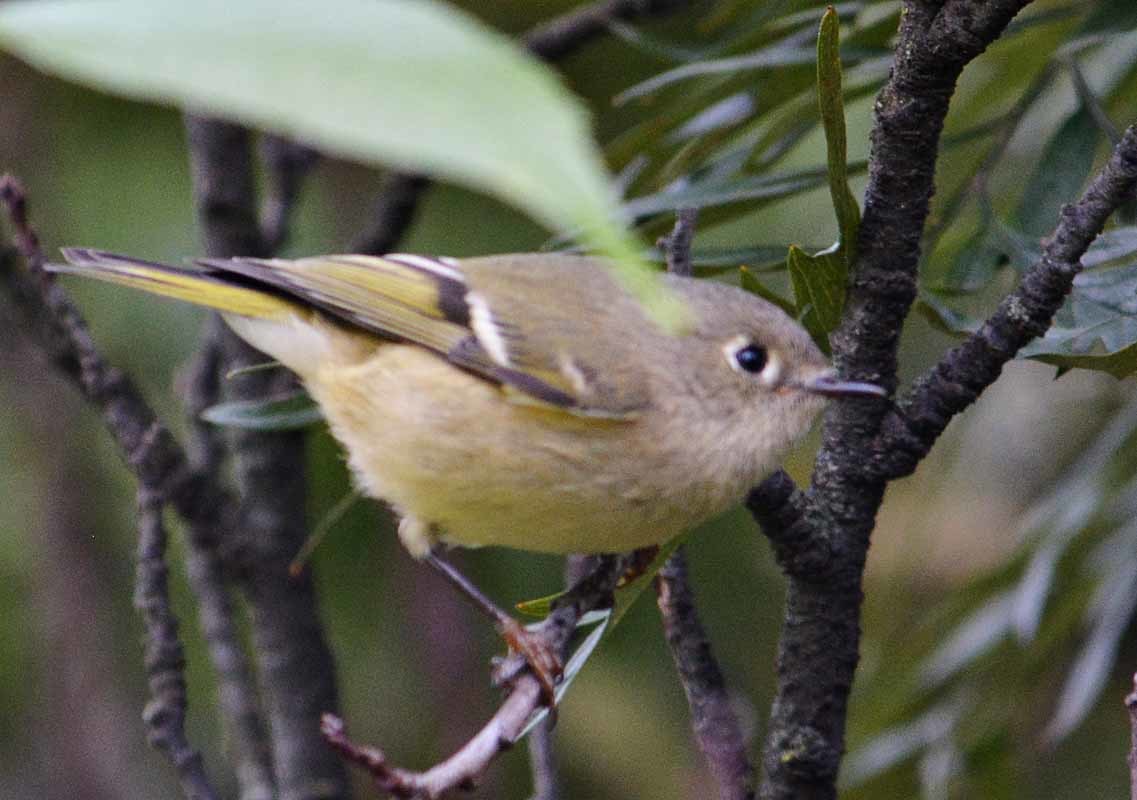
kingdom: Animalia
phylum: Chordata
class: Aves
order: Passeriformes
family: Regulidae
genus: Regulus
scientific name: Regulus calendula
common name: Ruby-crowned kinglet
